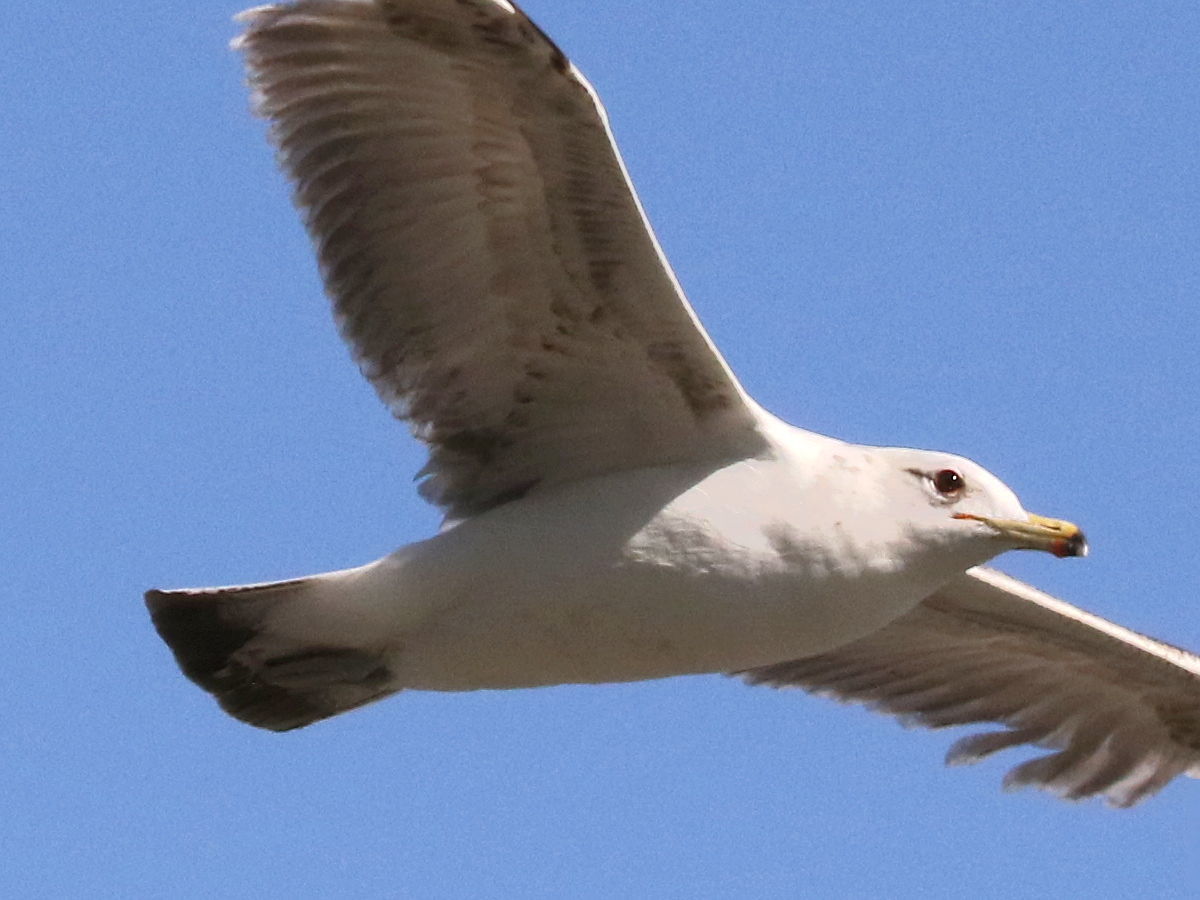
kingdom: Animalia
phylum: Chordata
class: Aves
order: Charadriiformes
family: Laridae
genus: Larus
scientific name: Larus californicus
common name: California gull
